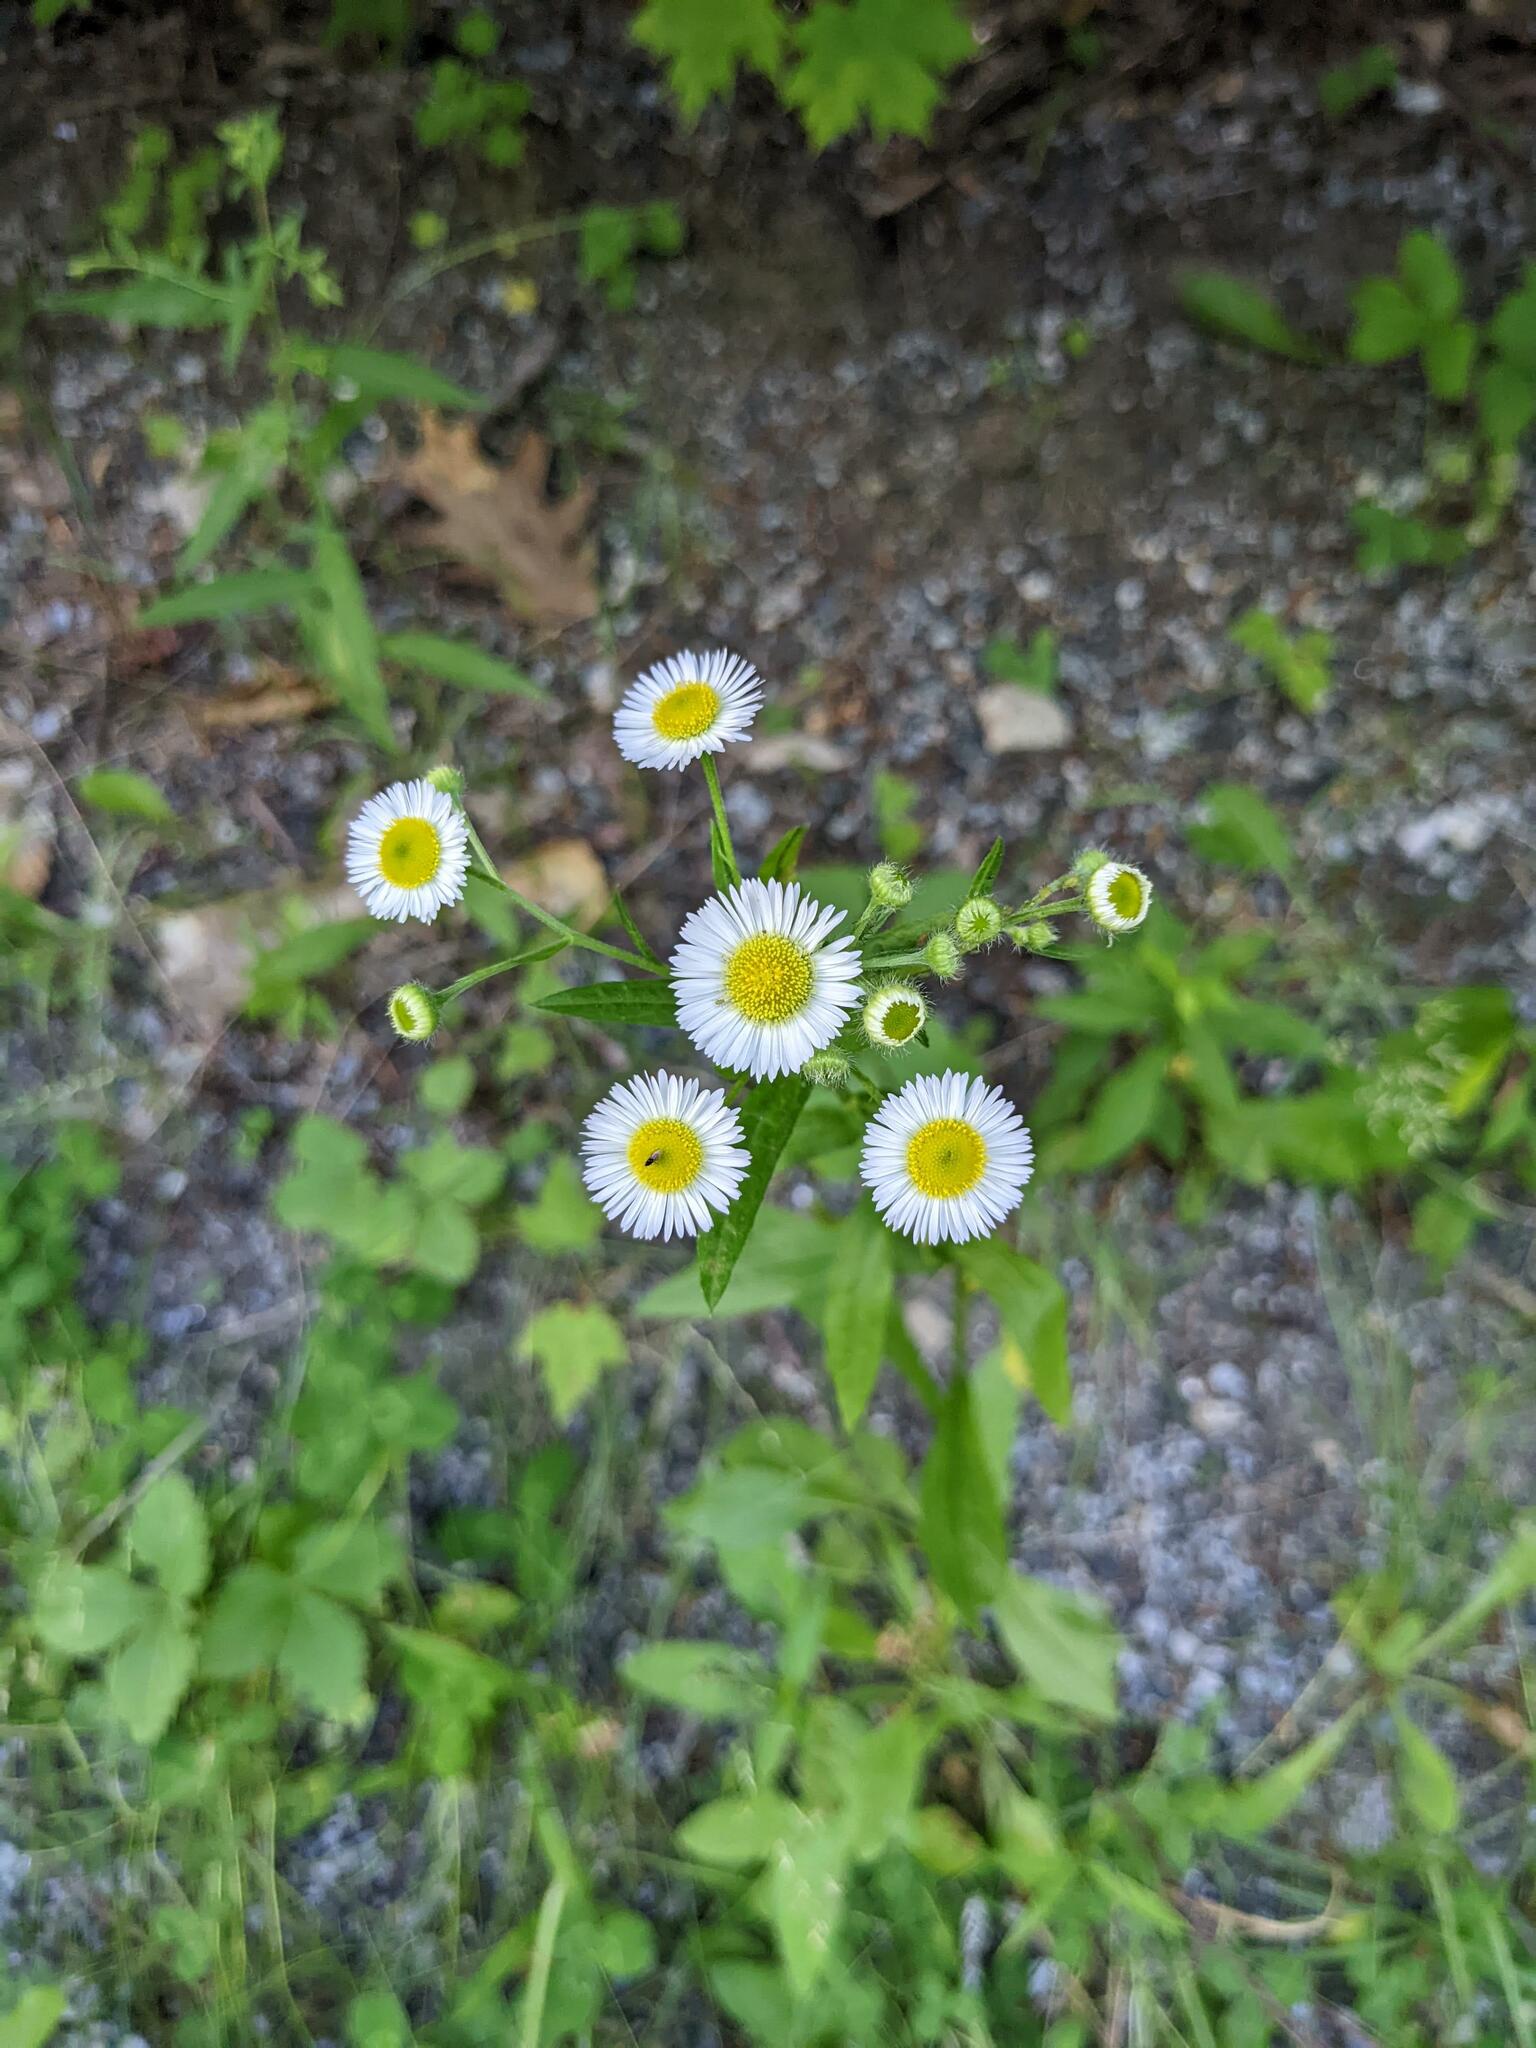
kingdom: Plantae
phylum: Tracheophyta
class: Magnoliopsida
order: Asterales
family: Asteraceae
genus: Erigeron
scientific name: Erigeron annuus
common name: Tall fleabane
